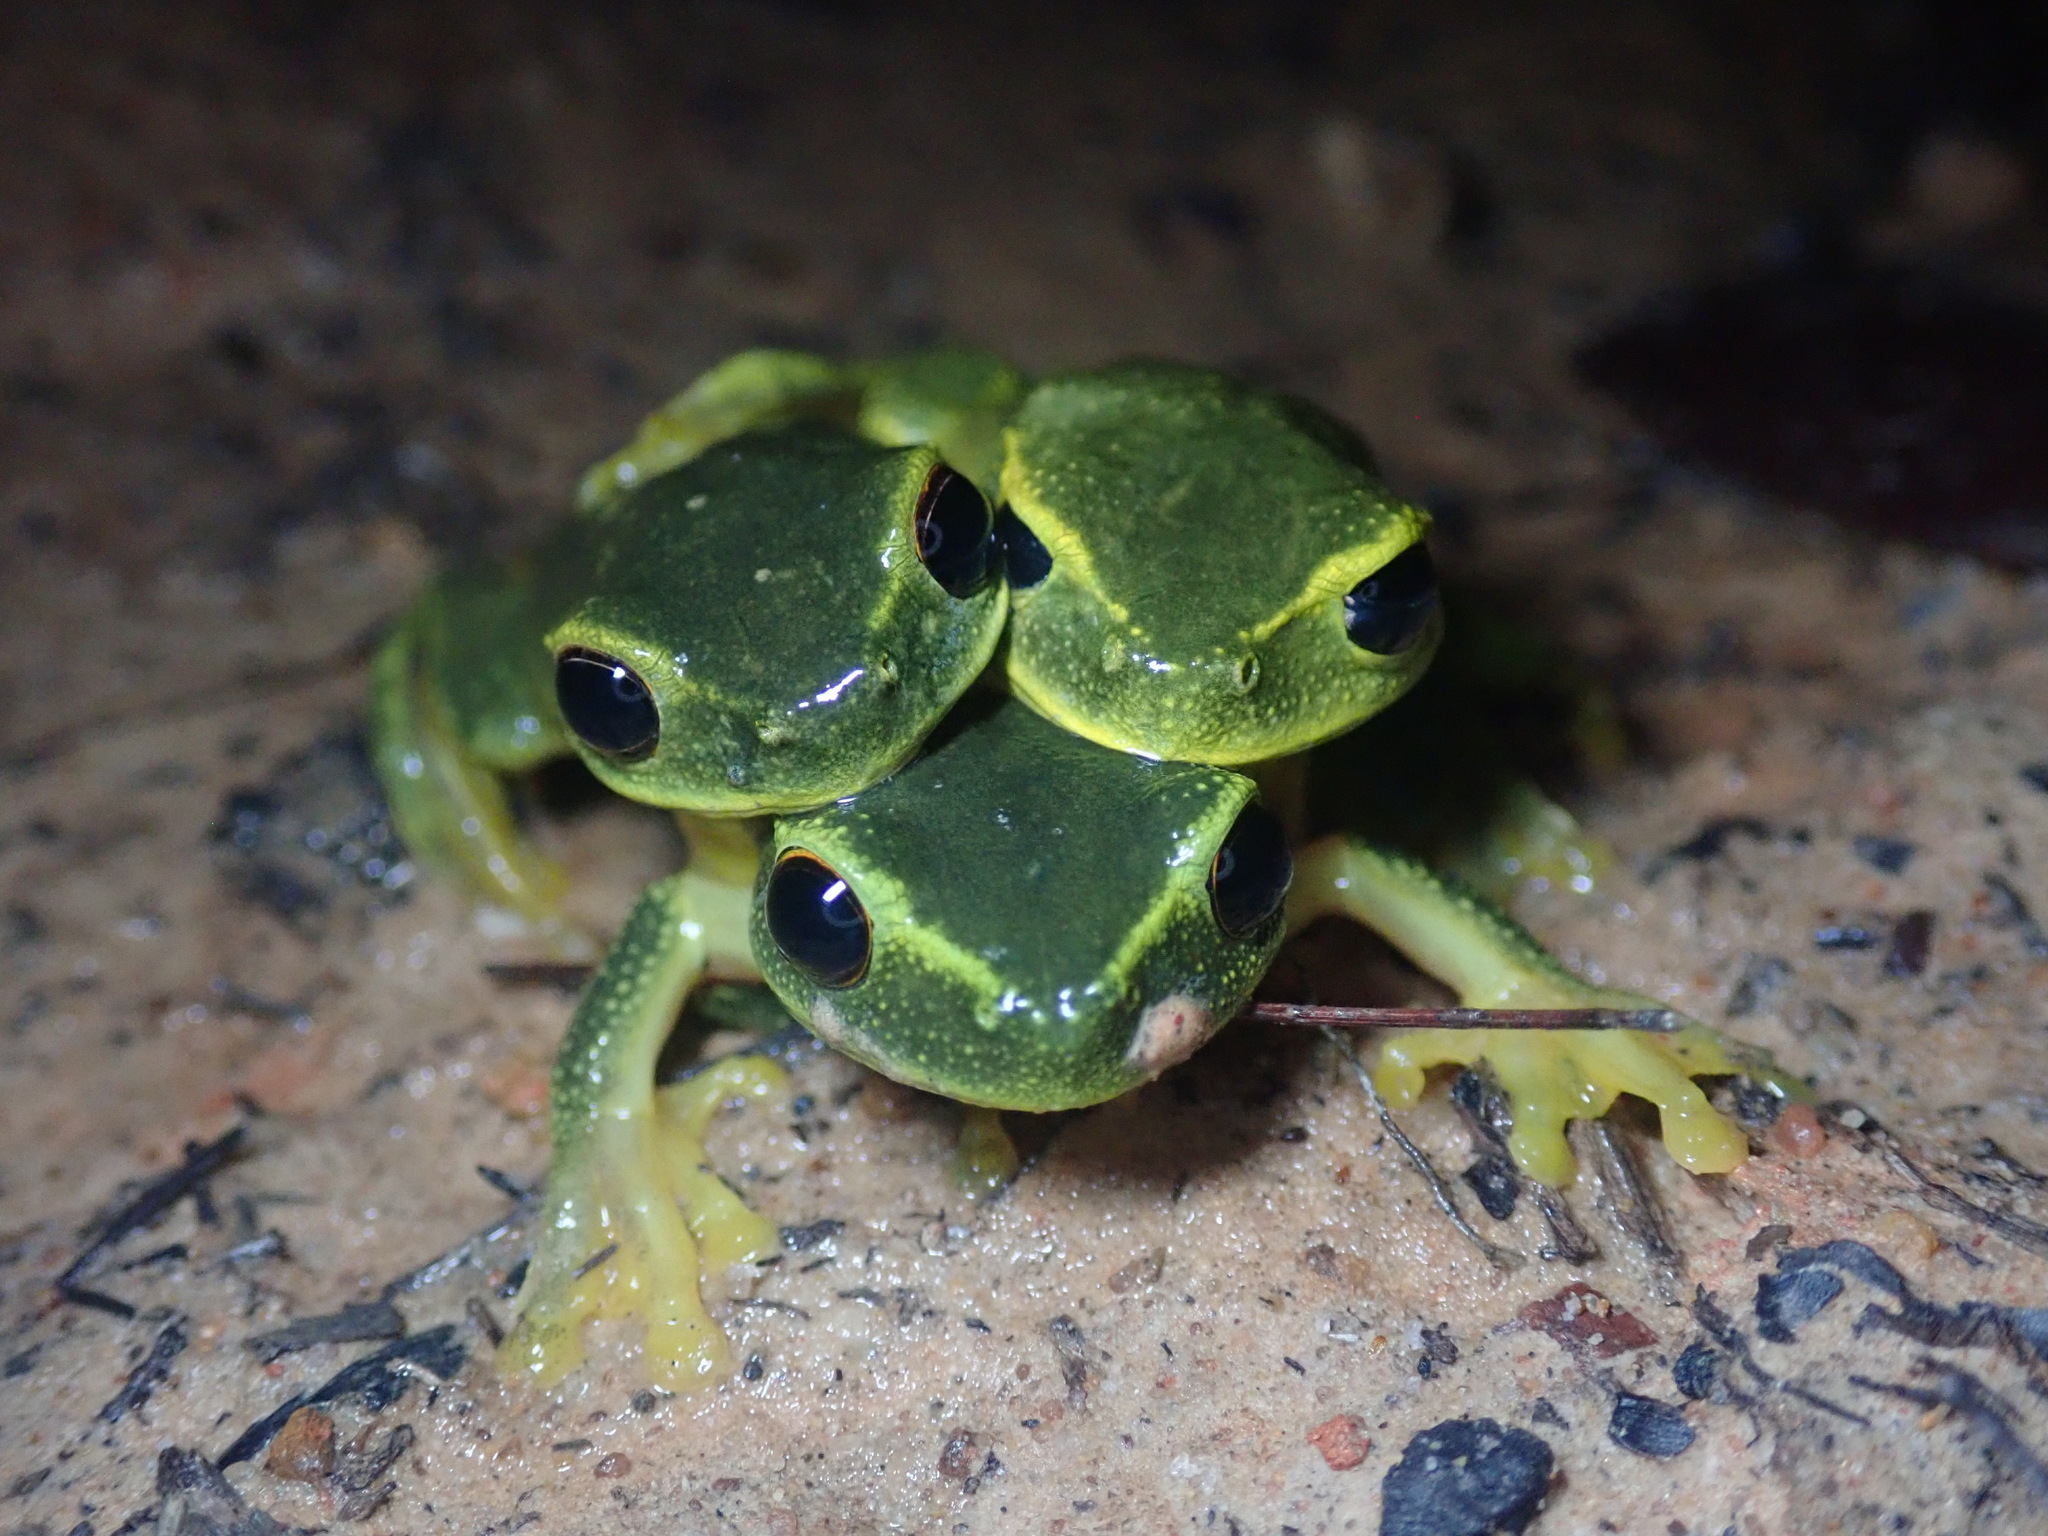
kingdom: Animalia
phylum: Chordata
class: Amphibia
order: Anura
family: Pelodryadidae
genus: Ranoidea
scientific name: Ranoidea gracilenta
